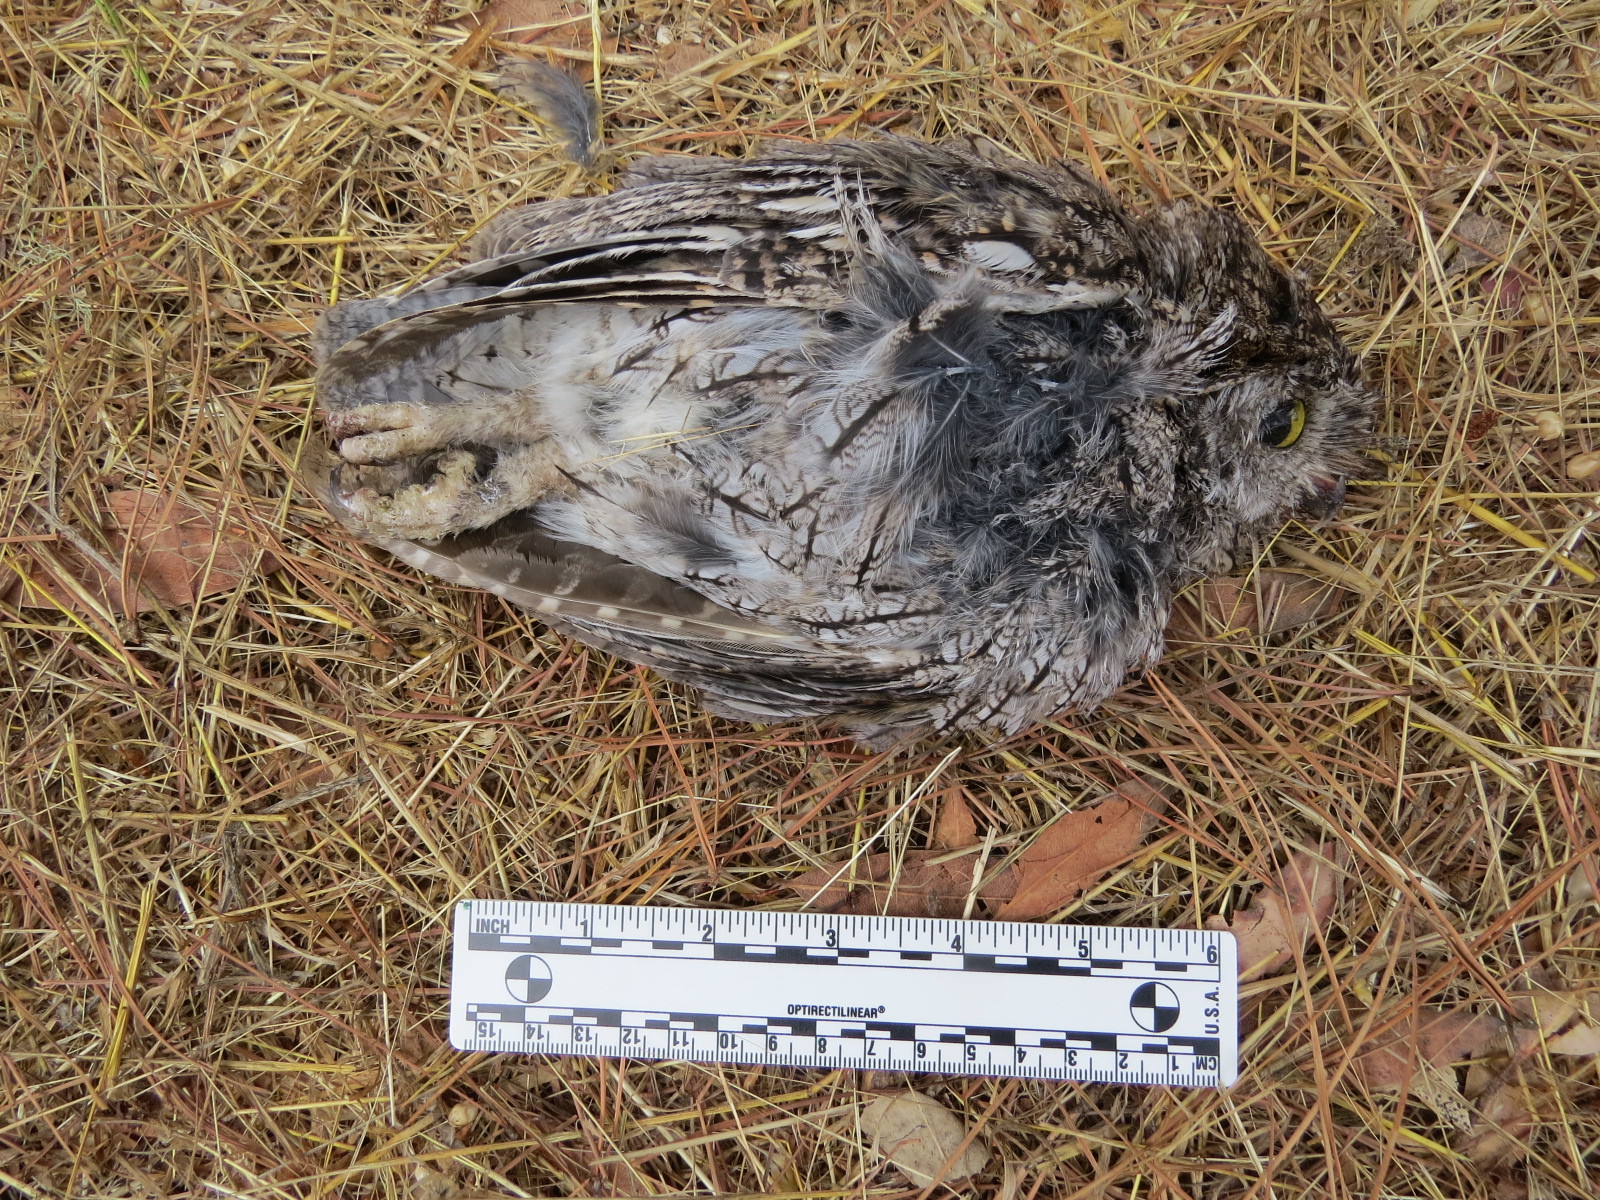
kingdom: Animalia
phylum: Chordata
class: Aves
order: Strigiformes
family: Strigidae
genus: Megascops
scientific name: Megascops kennicottii
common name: Western screech-owl
